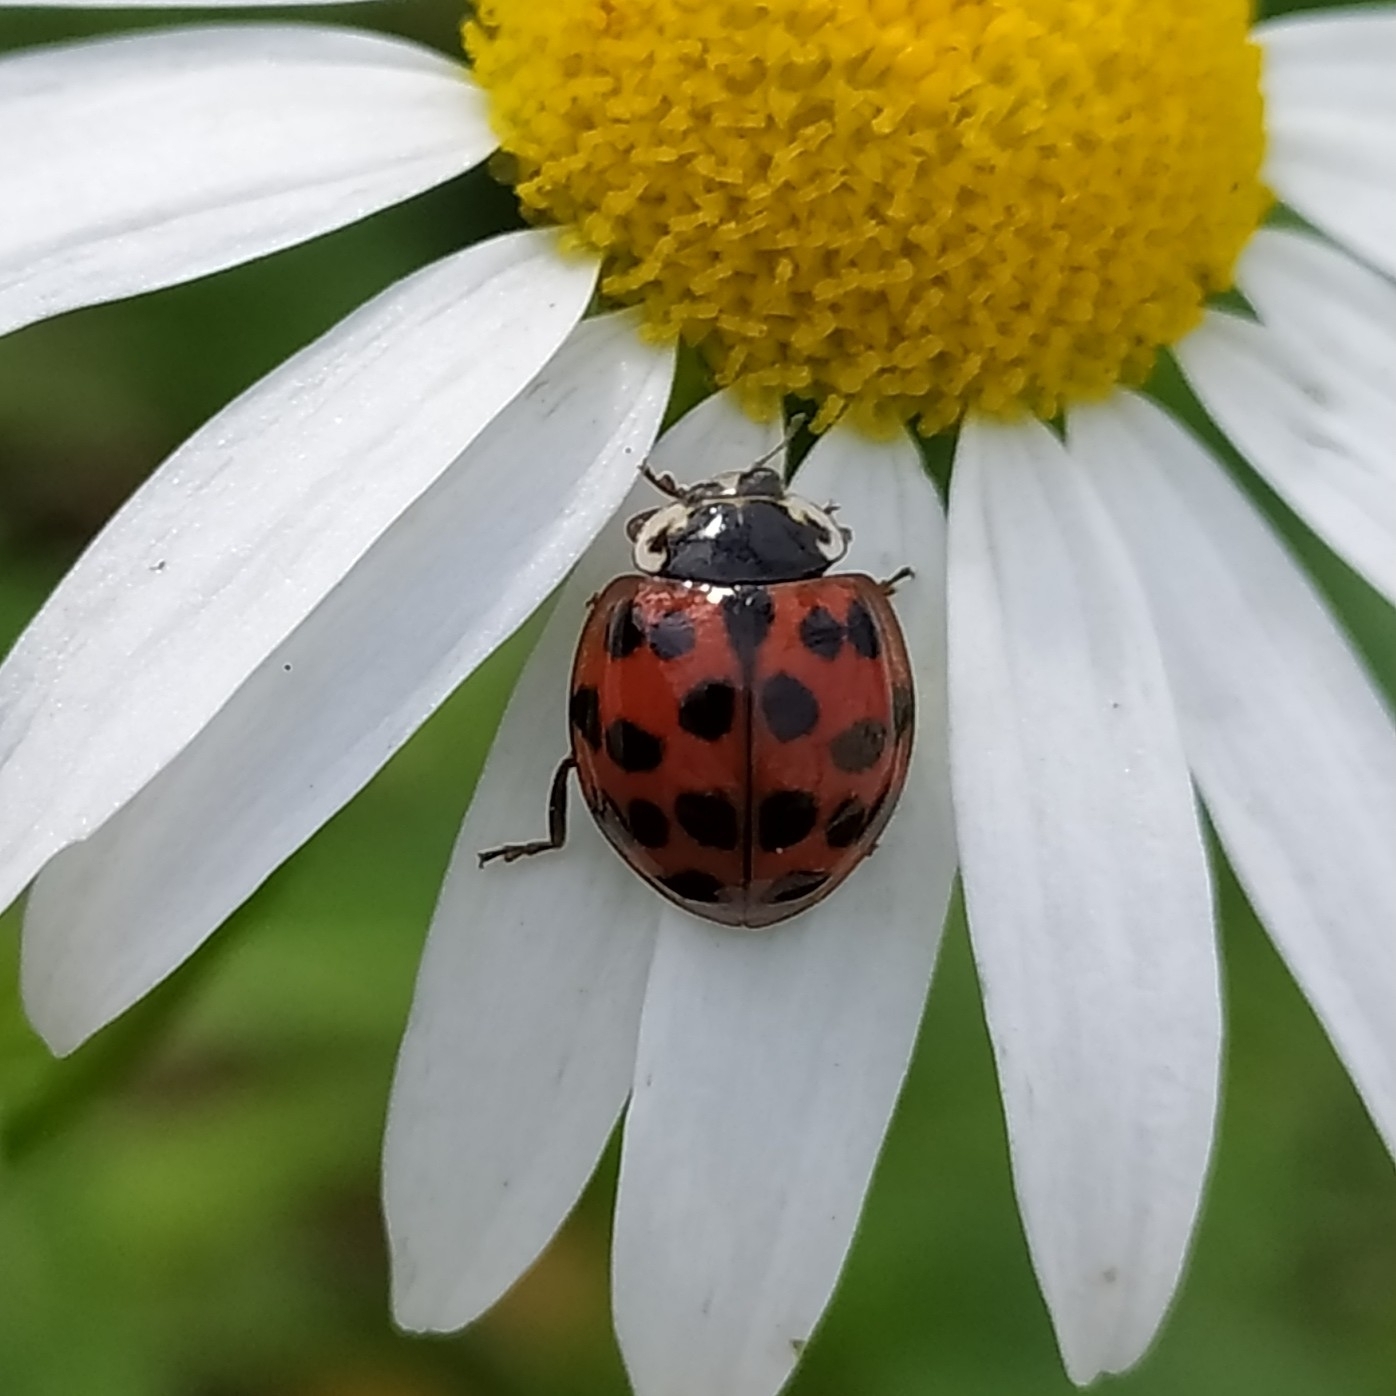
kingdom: Animalia
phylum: Arthropoda
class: Insecta
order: Coleoptera
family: Coccinellidae
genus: Harmonia
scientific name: Harmonia axyridis
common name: Harlequin ladybird
